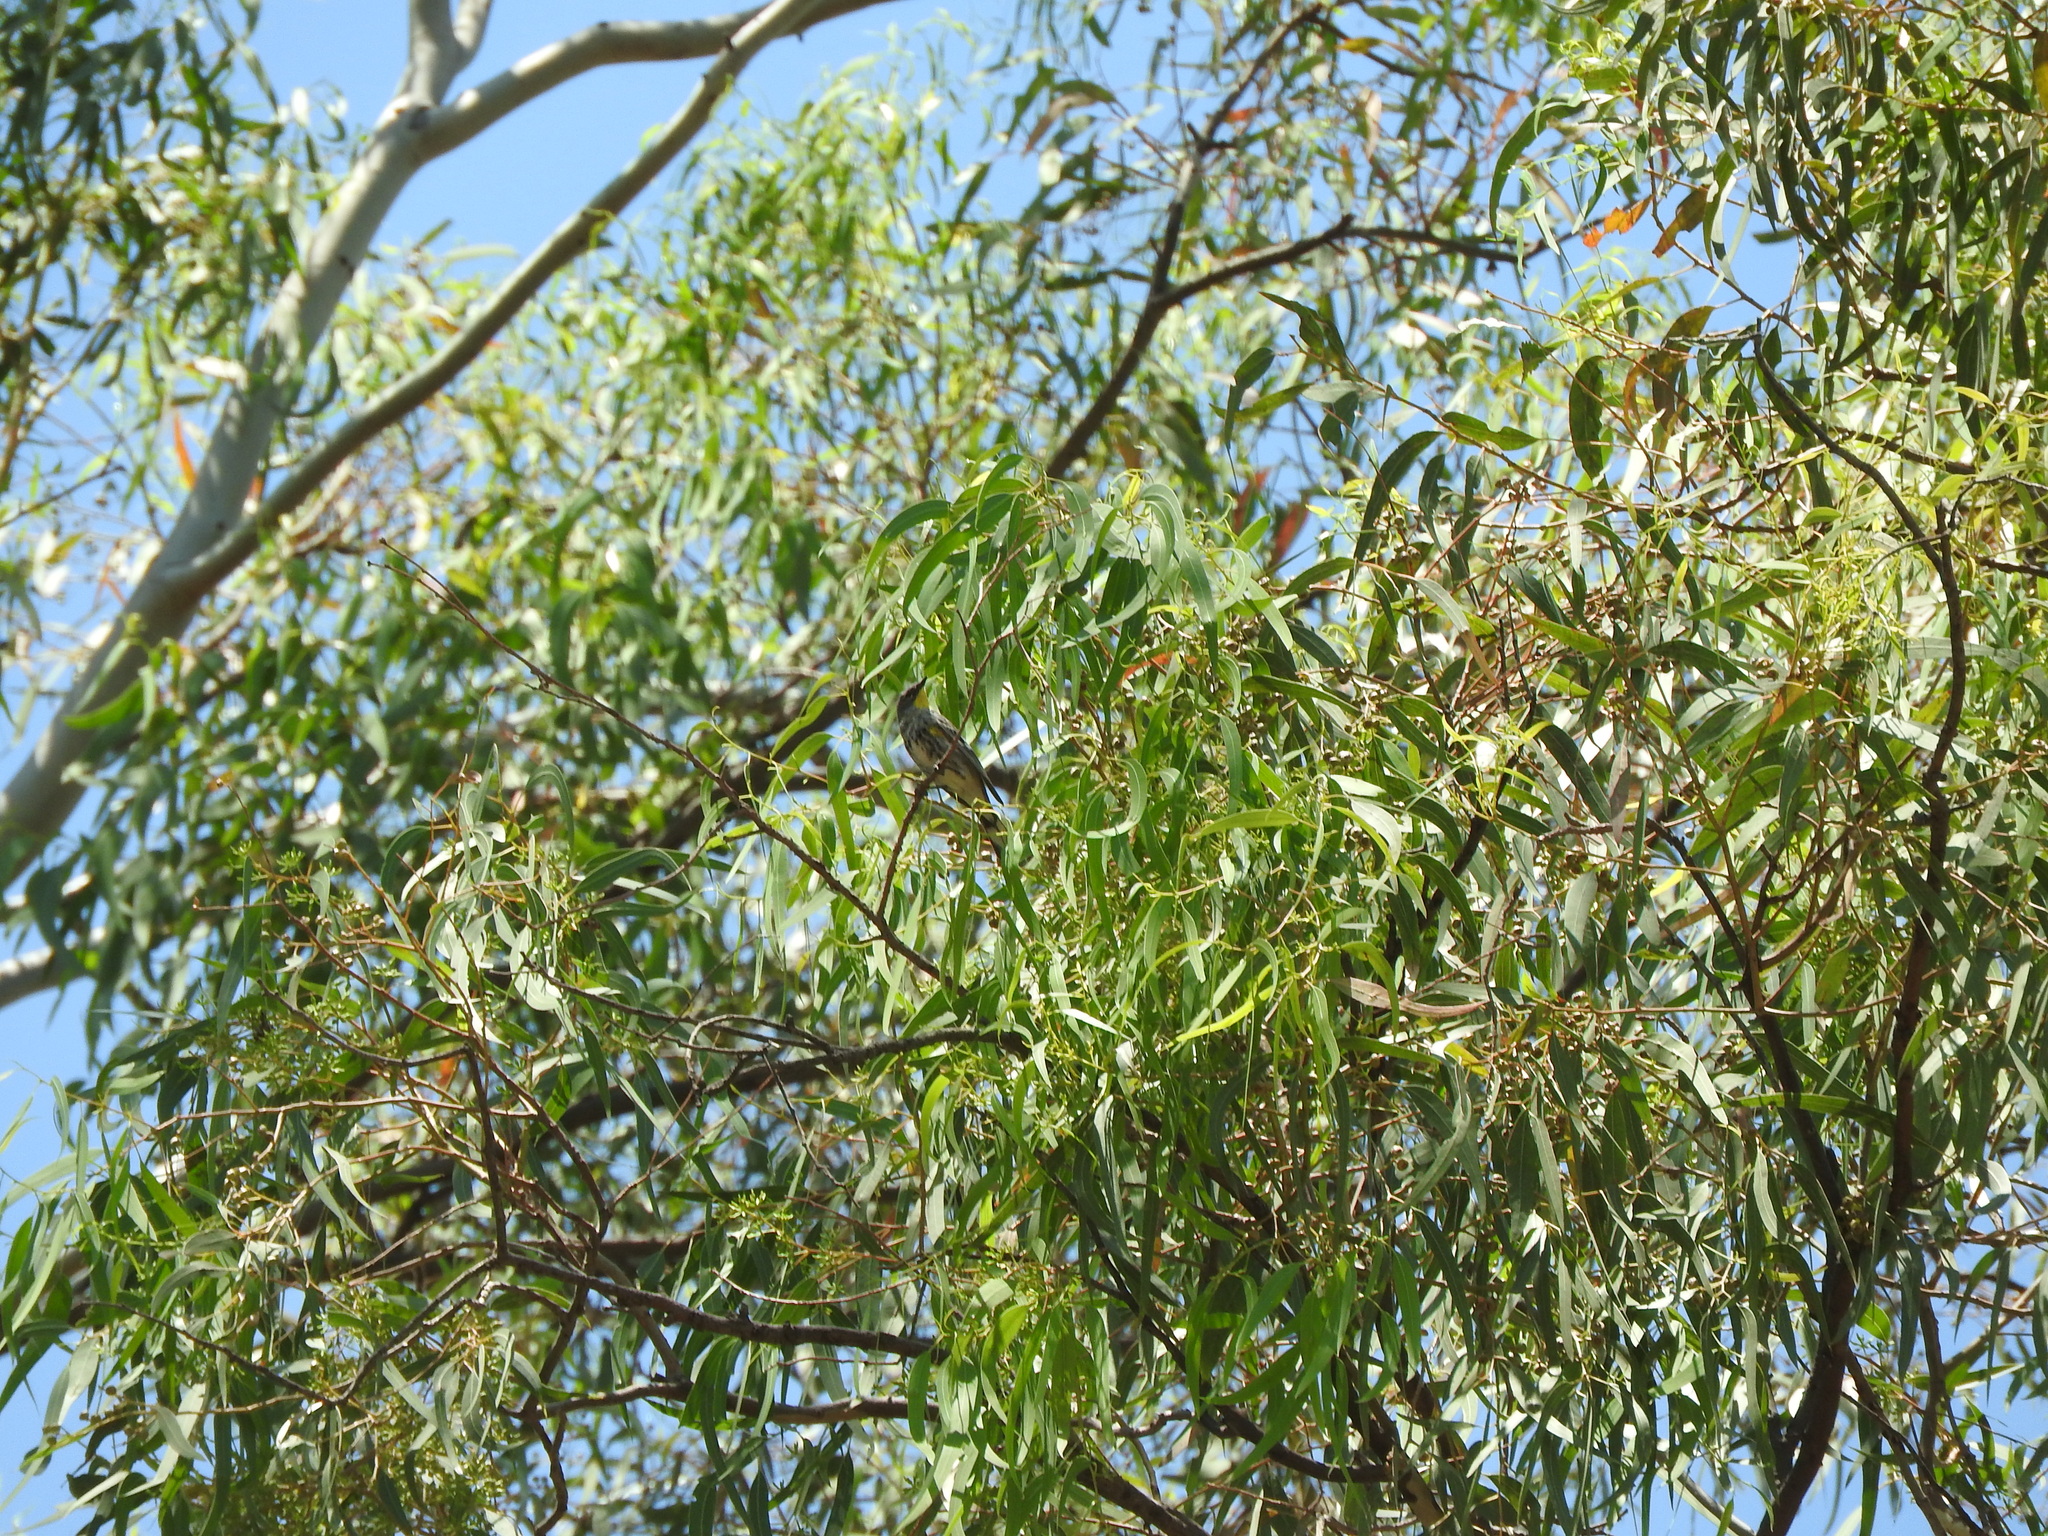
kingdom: Animalia
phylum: Chordata
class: Aves
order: Passeriformes
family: Parulidae
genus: Setophaga
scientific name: Setophaga coronata
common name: Myrtle warbler
